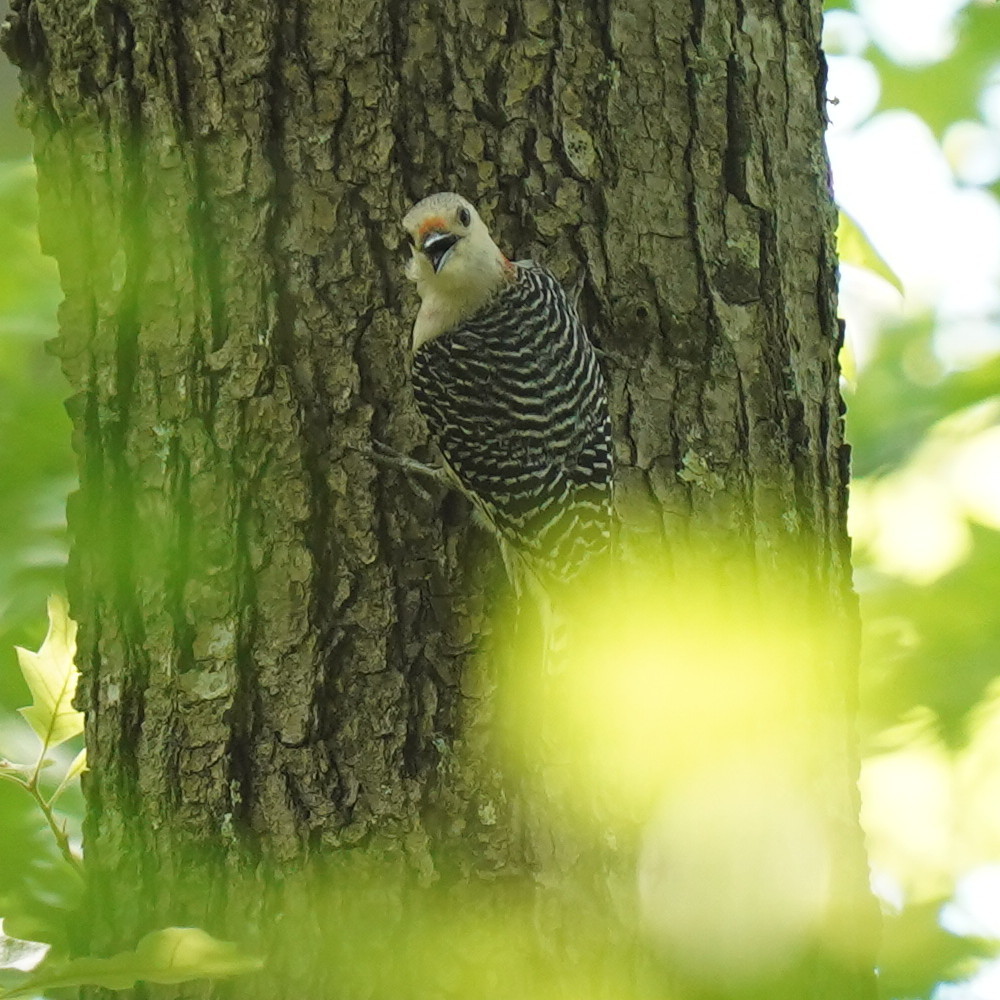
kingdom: Animalia
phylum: Chordata
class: Aves
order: Piciformes
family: Picidae
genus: Melanerpes
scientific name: Melanerpes carolinus
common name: Red-bellied woodpecker
